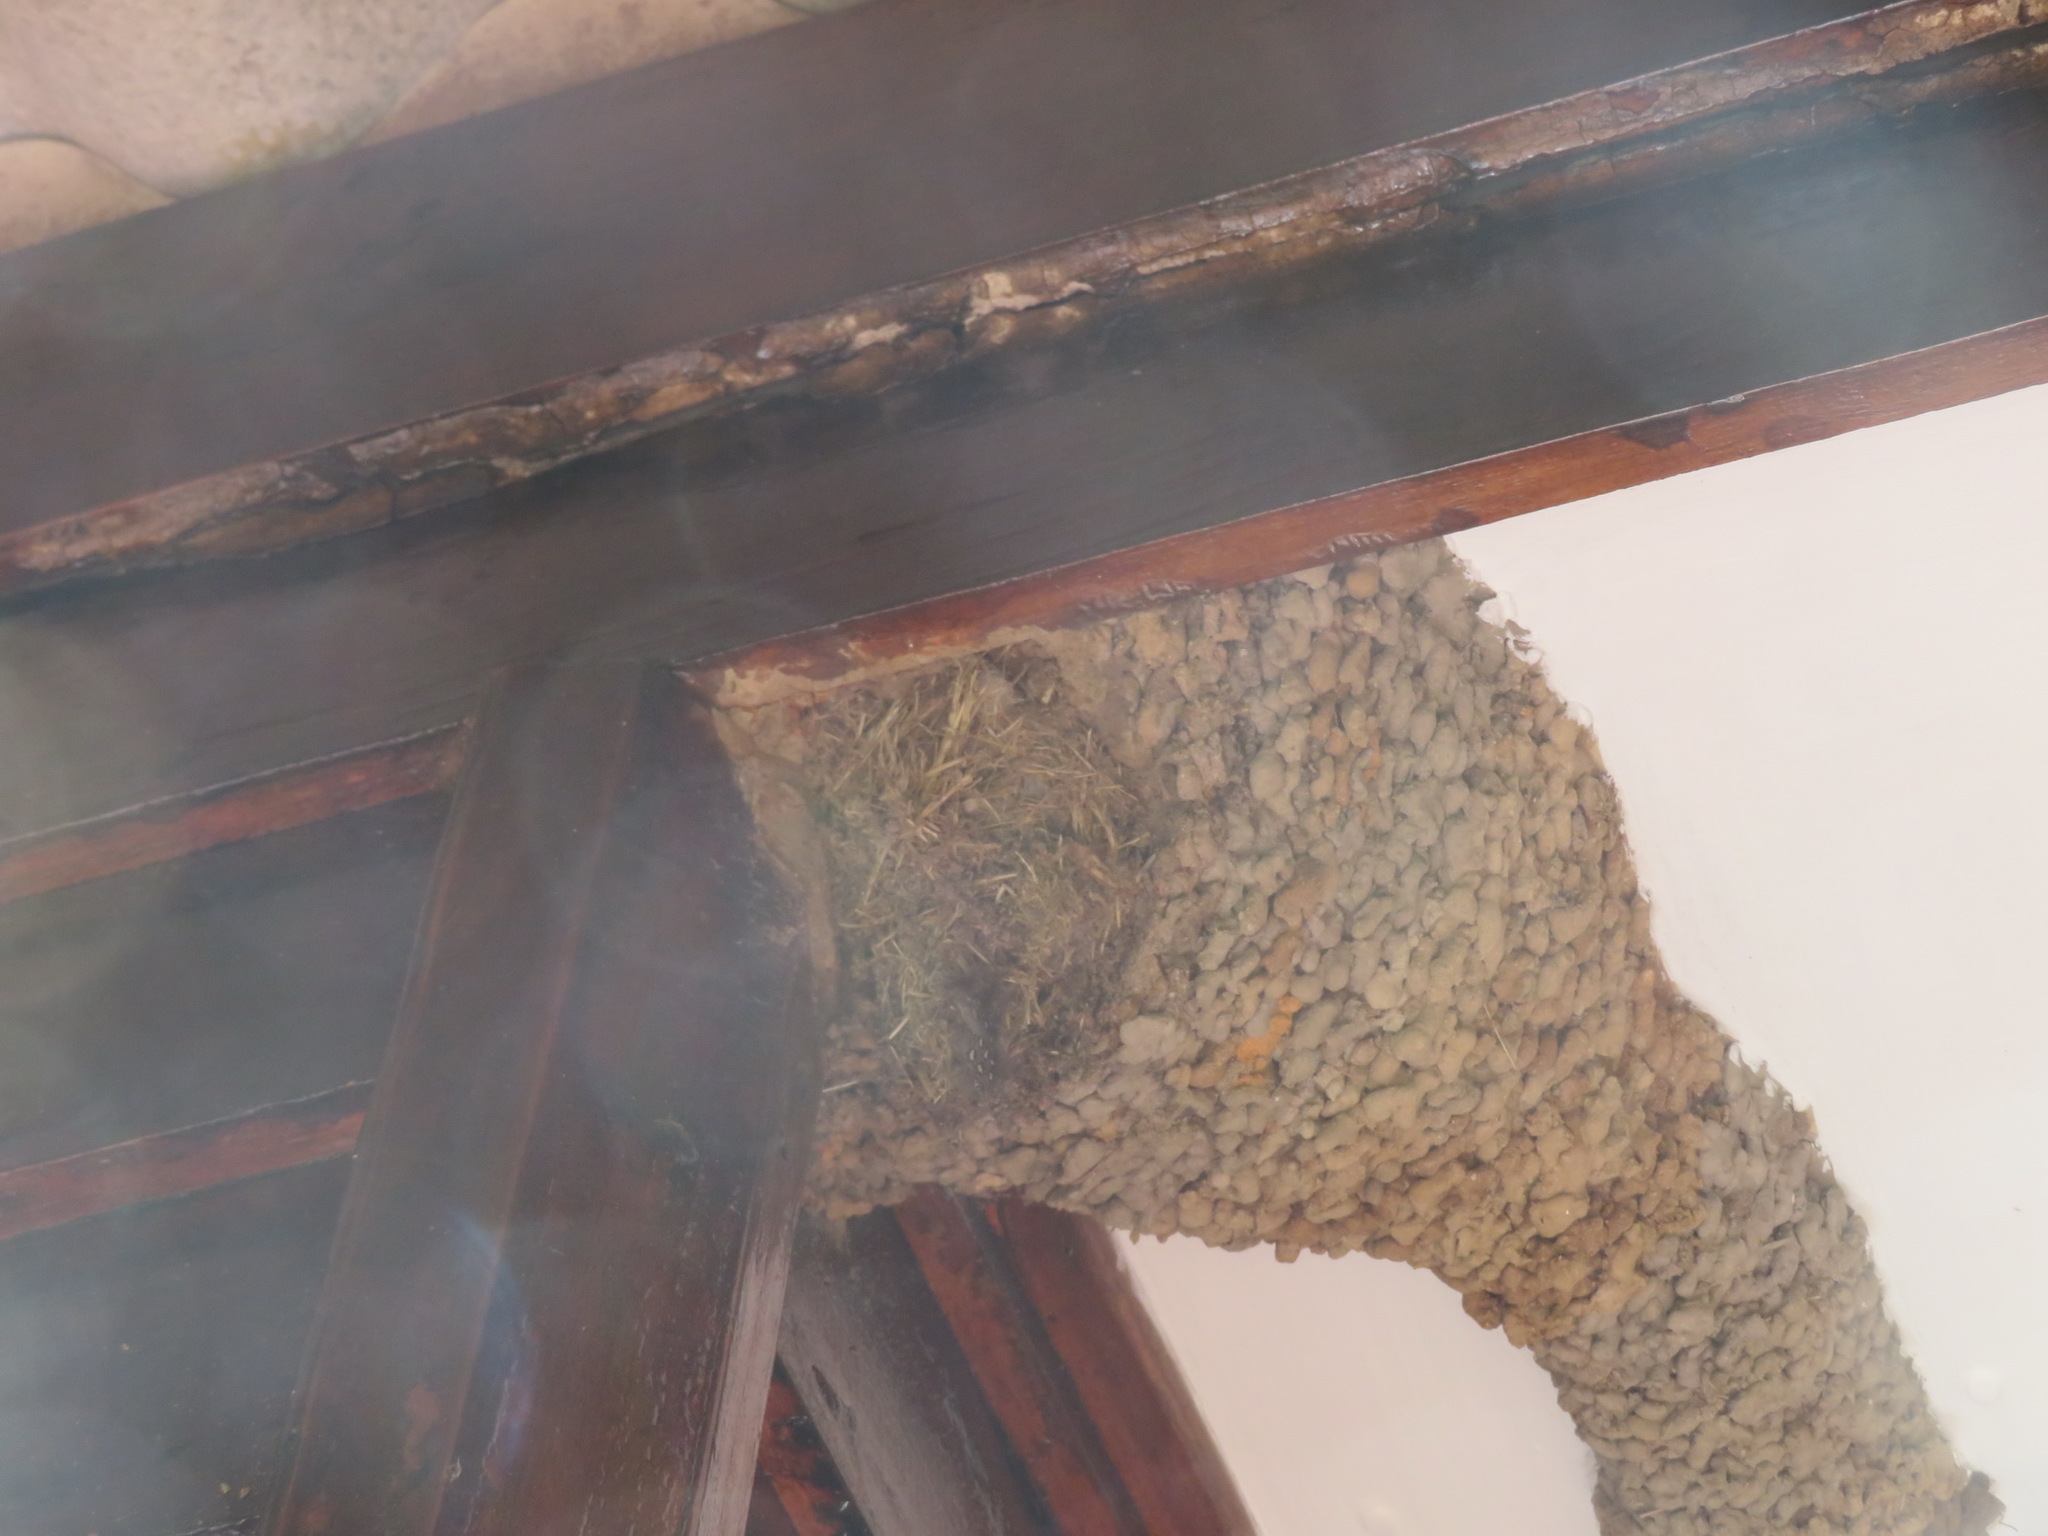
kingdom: Animalia
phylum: Chordata
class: Aves
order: Passeriformes
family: Hirundinidae
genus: Cecropis
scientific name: Cecropis cucullata
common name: Greater striped-swallow
